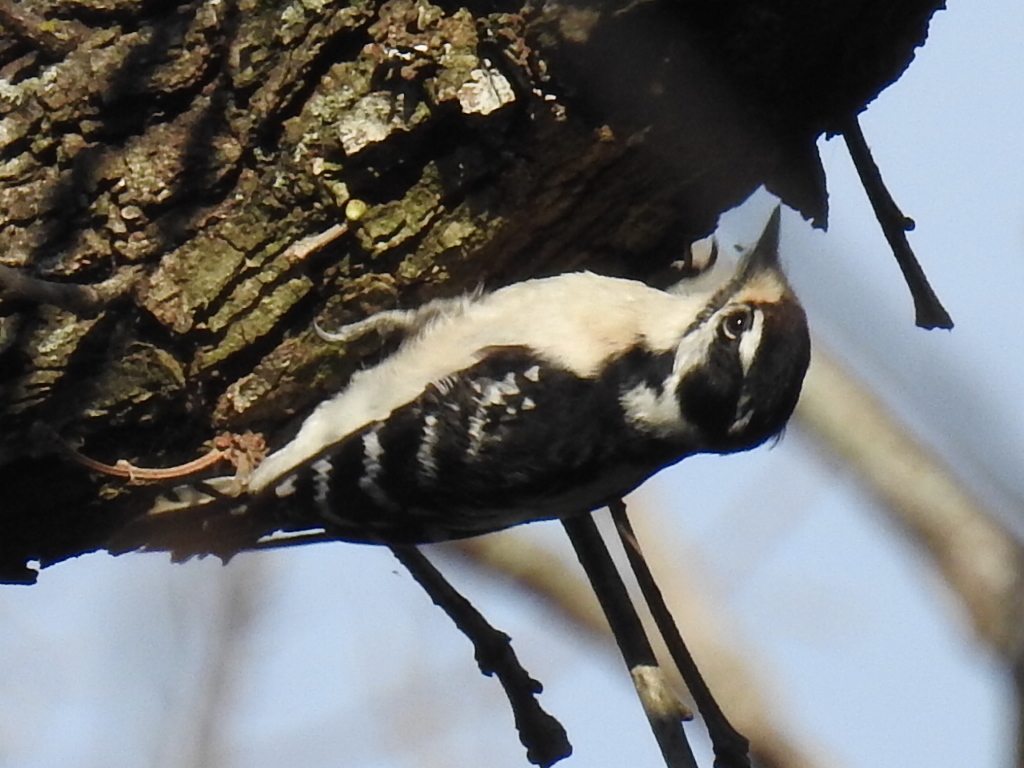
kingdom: Animalia
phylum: Chordata
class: Aves
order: Piciformes
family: Picidae
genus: Dryobates
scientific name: Dryobates pubescens
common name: Downy woodpecker
